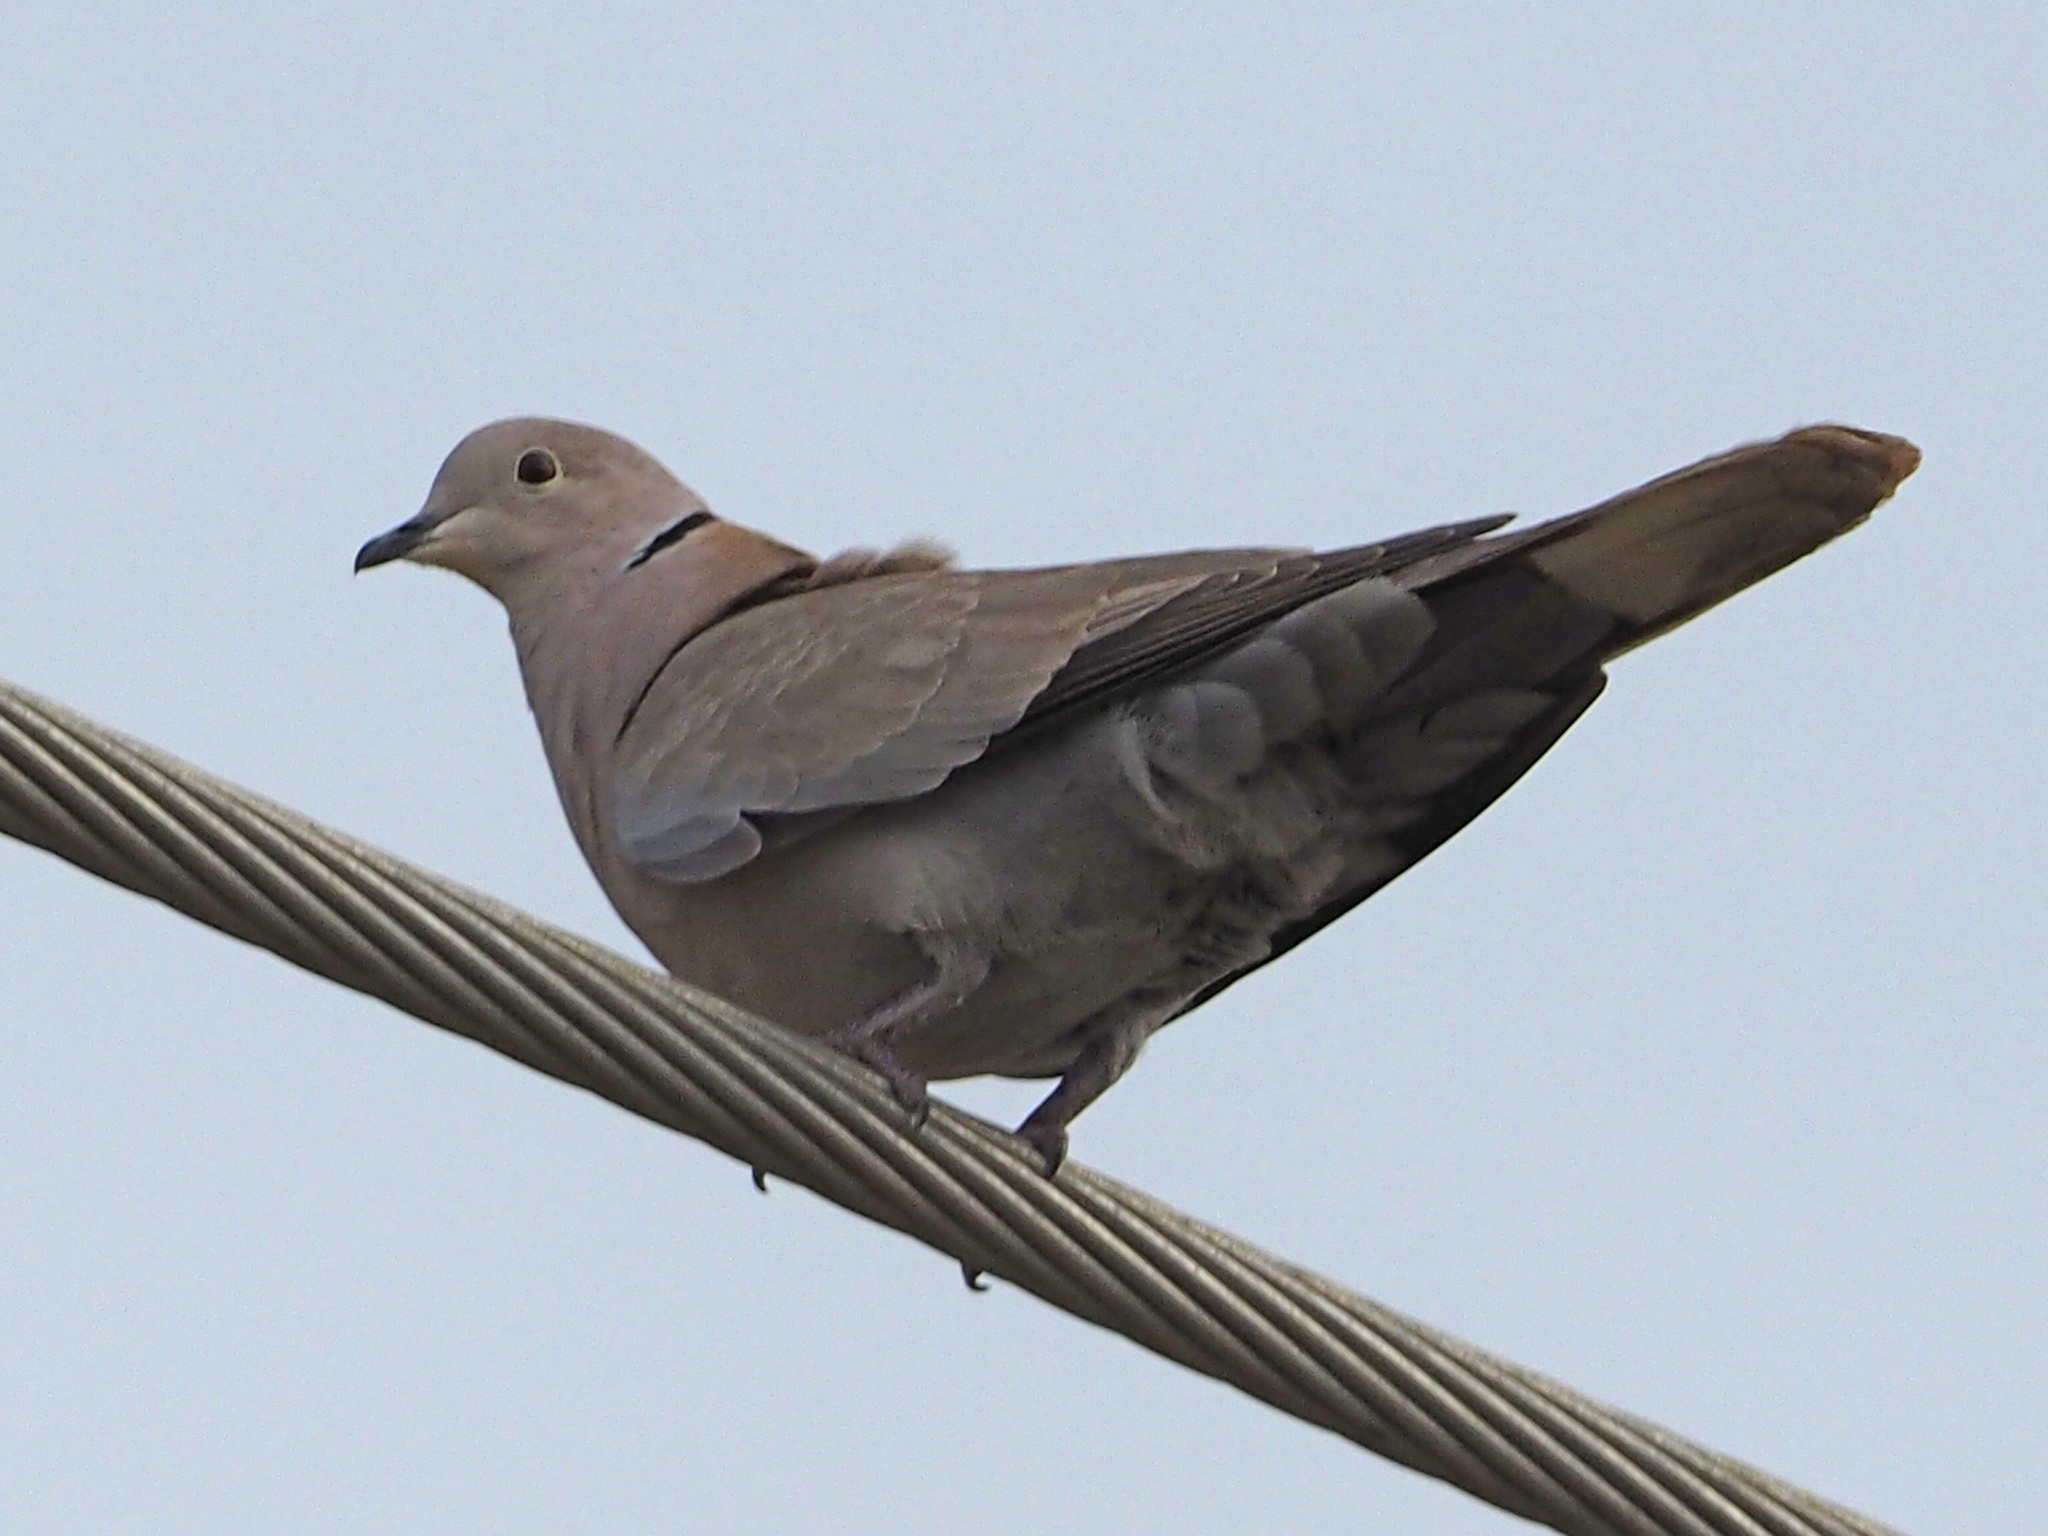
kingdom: Animalia
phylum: Chordata
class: Aves
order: Columbiformes
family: Columbidae
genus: Streptopelia
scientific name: Streptopelia decaocto
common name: Eurasian collared dove
